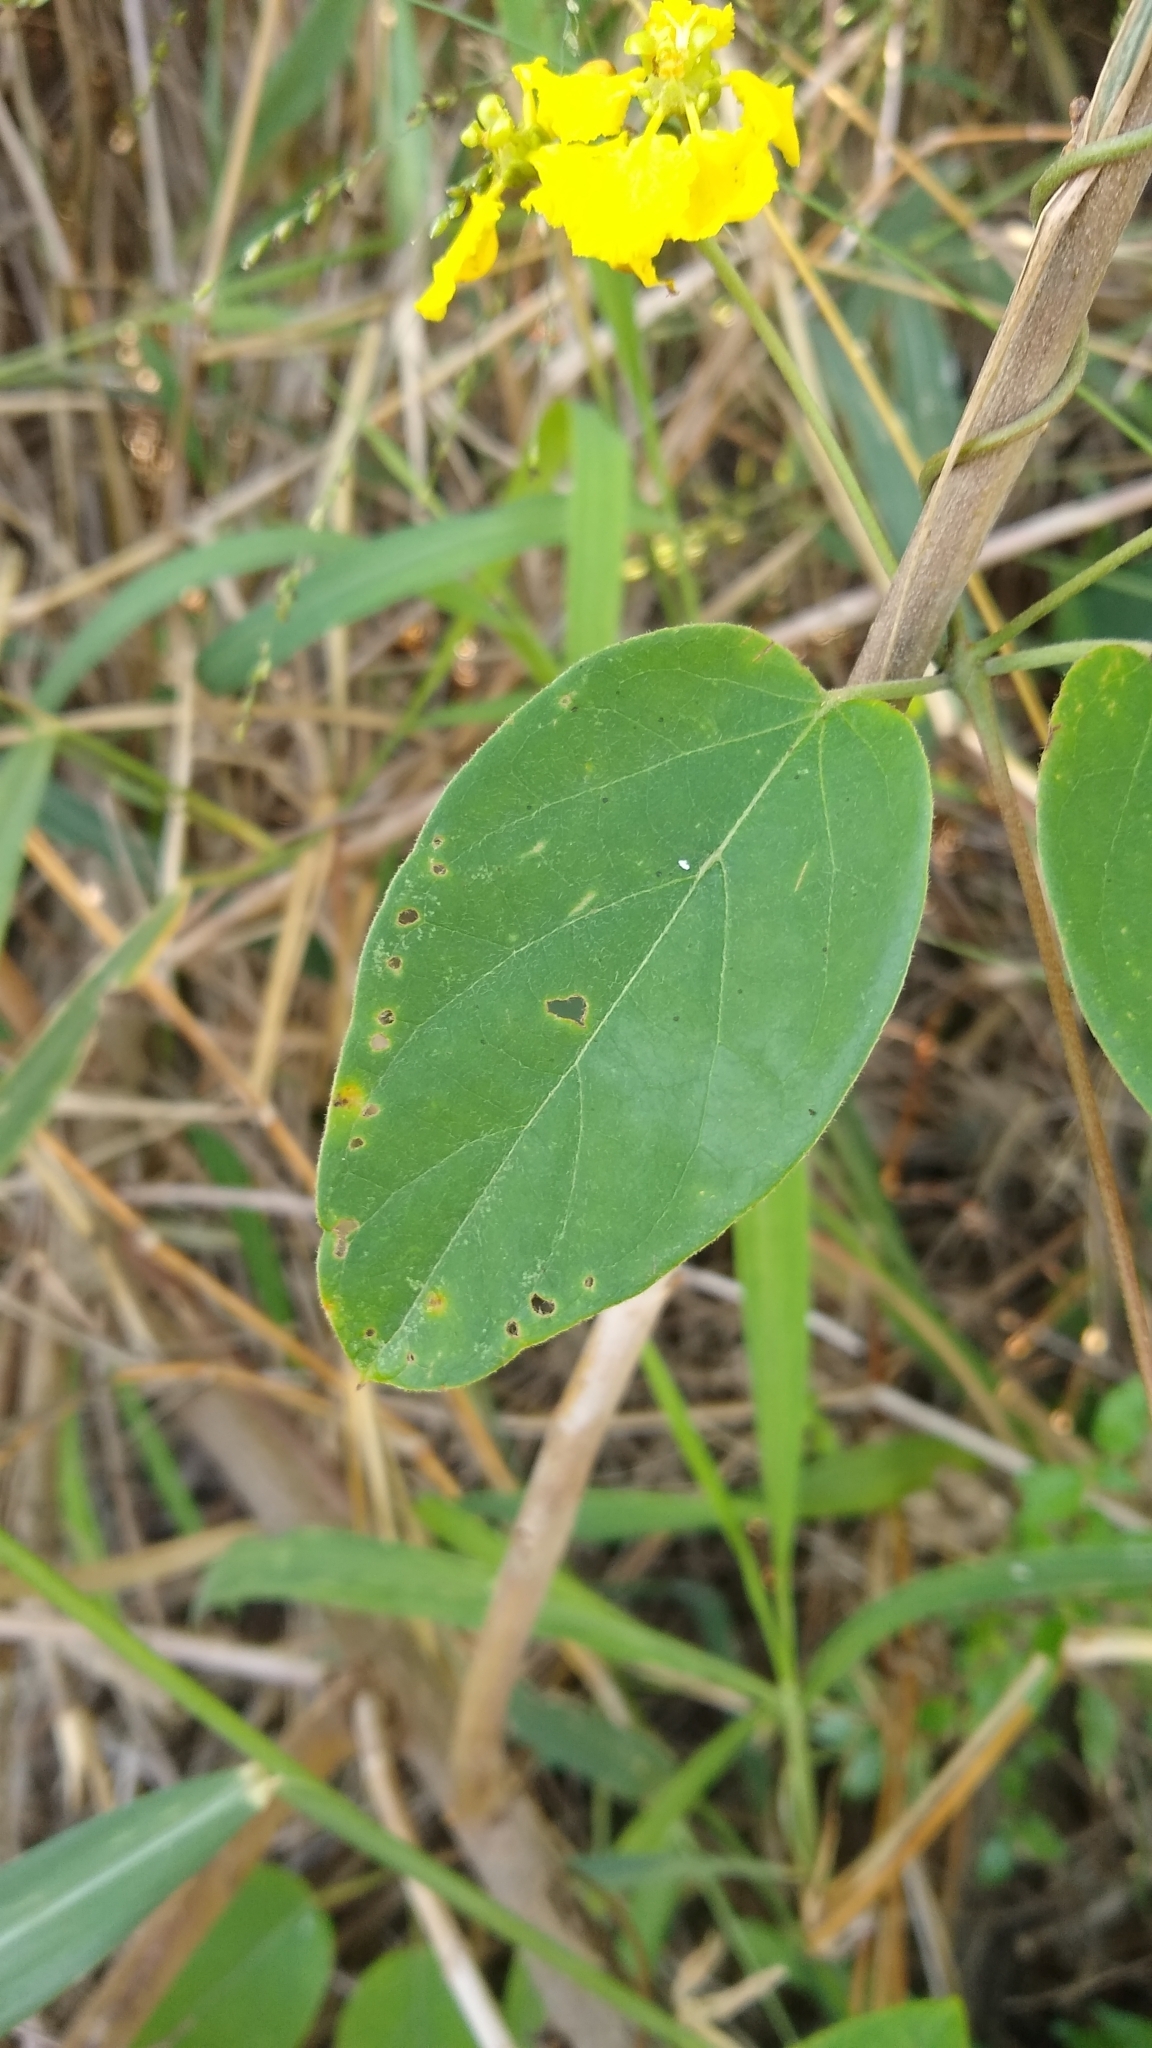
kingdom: Plantae
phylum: Tracheophyta
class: Magnoliopsida
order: Malpighiales
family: Malpighiaceae
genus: Stigmaphyllon
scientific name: Stigmaphyllon bonariense
